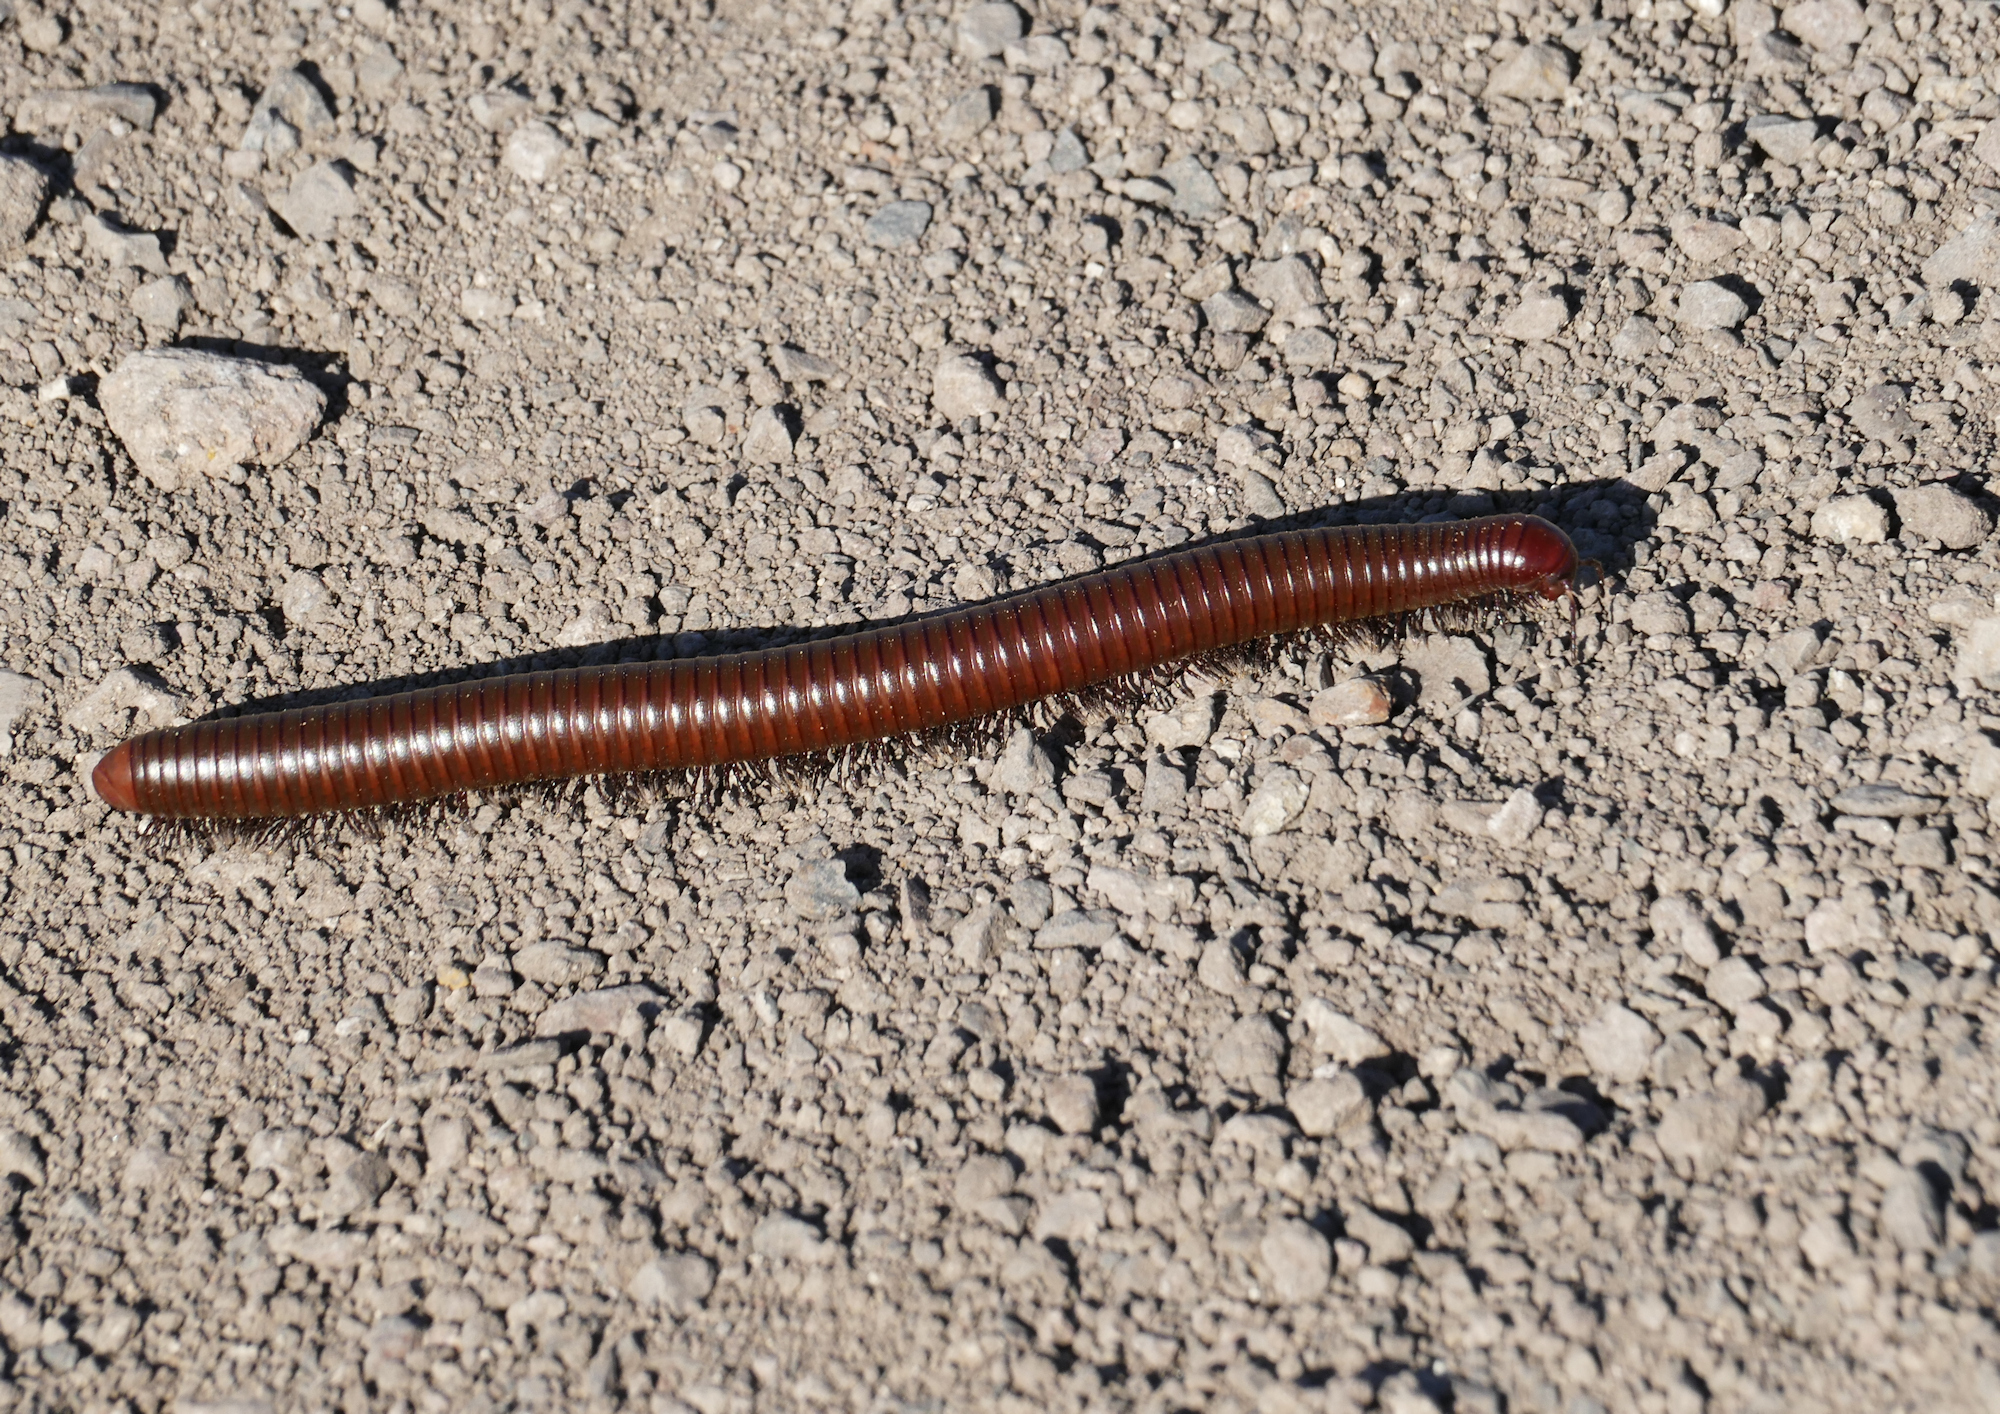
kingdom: Animalia
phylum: Arthropoda
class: Diplopoda
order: Spirostreptida
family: Spirostreptidae
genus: Orthoporus
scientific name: Orthoporus ornatus
